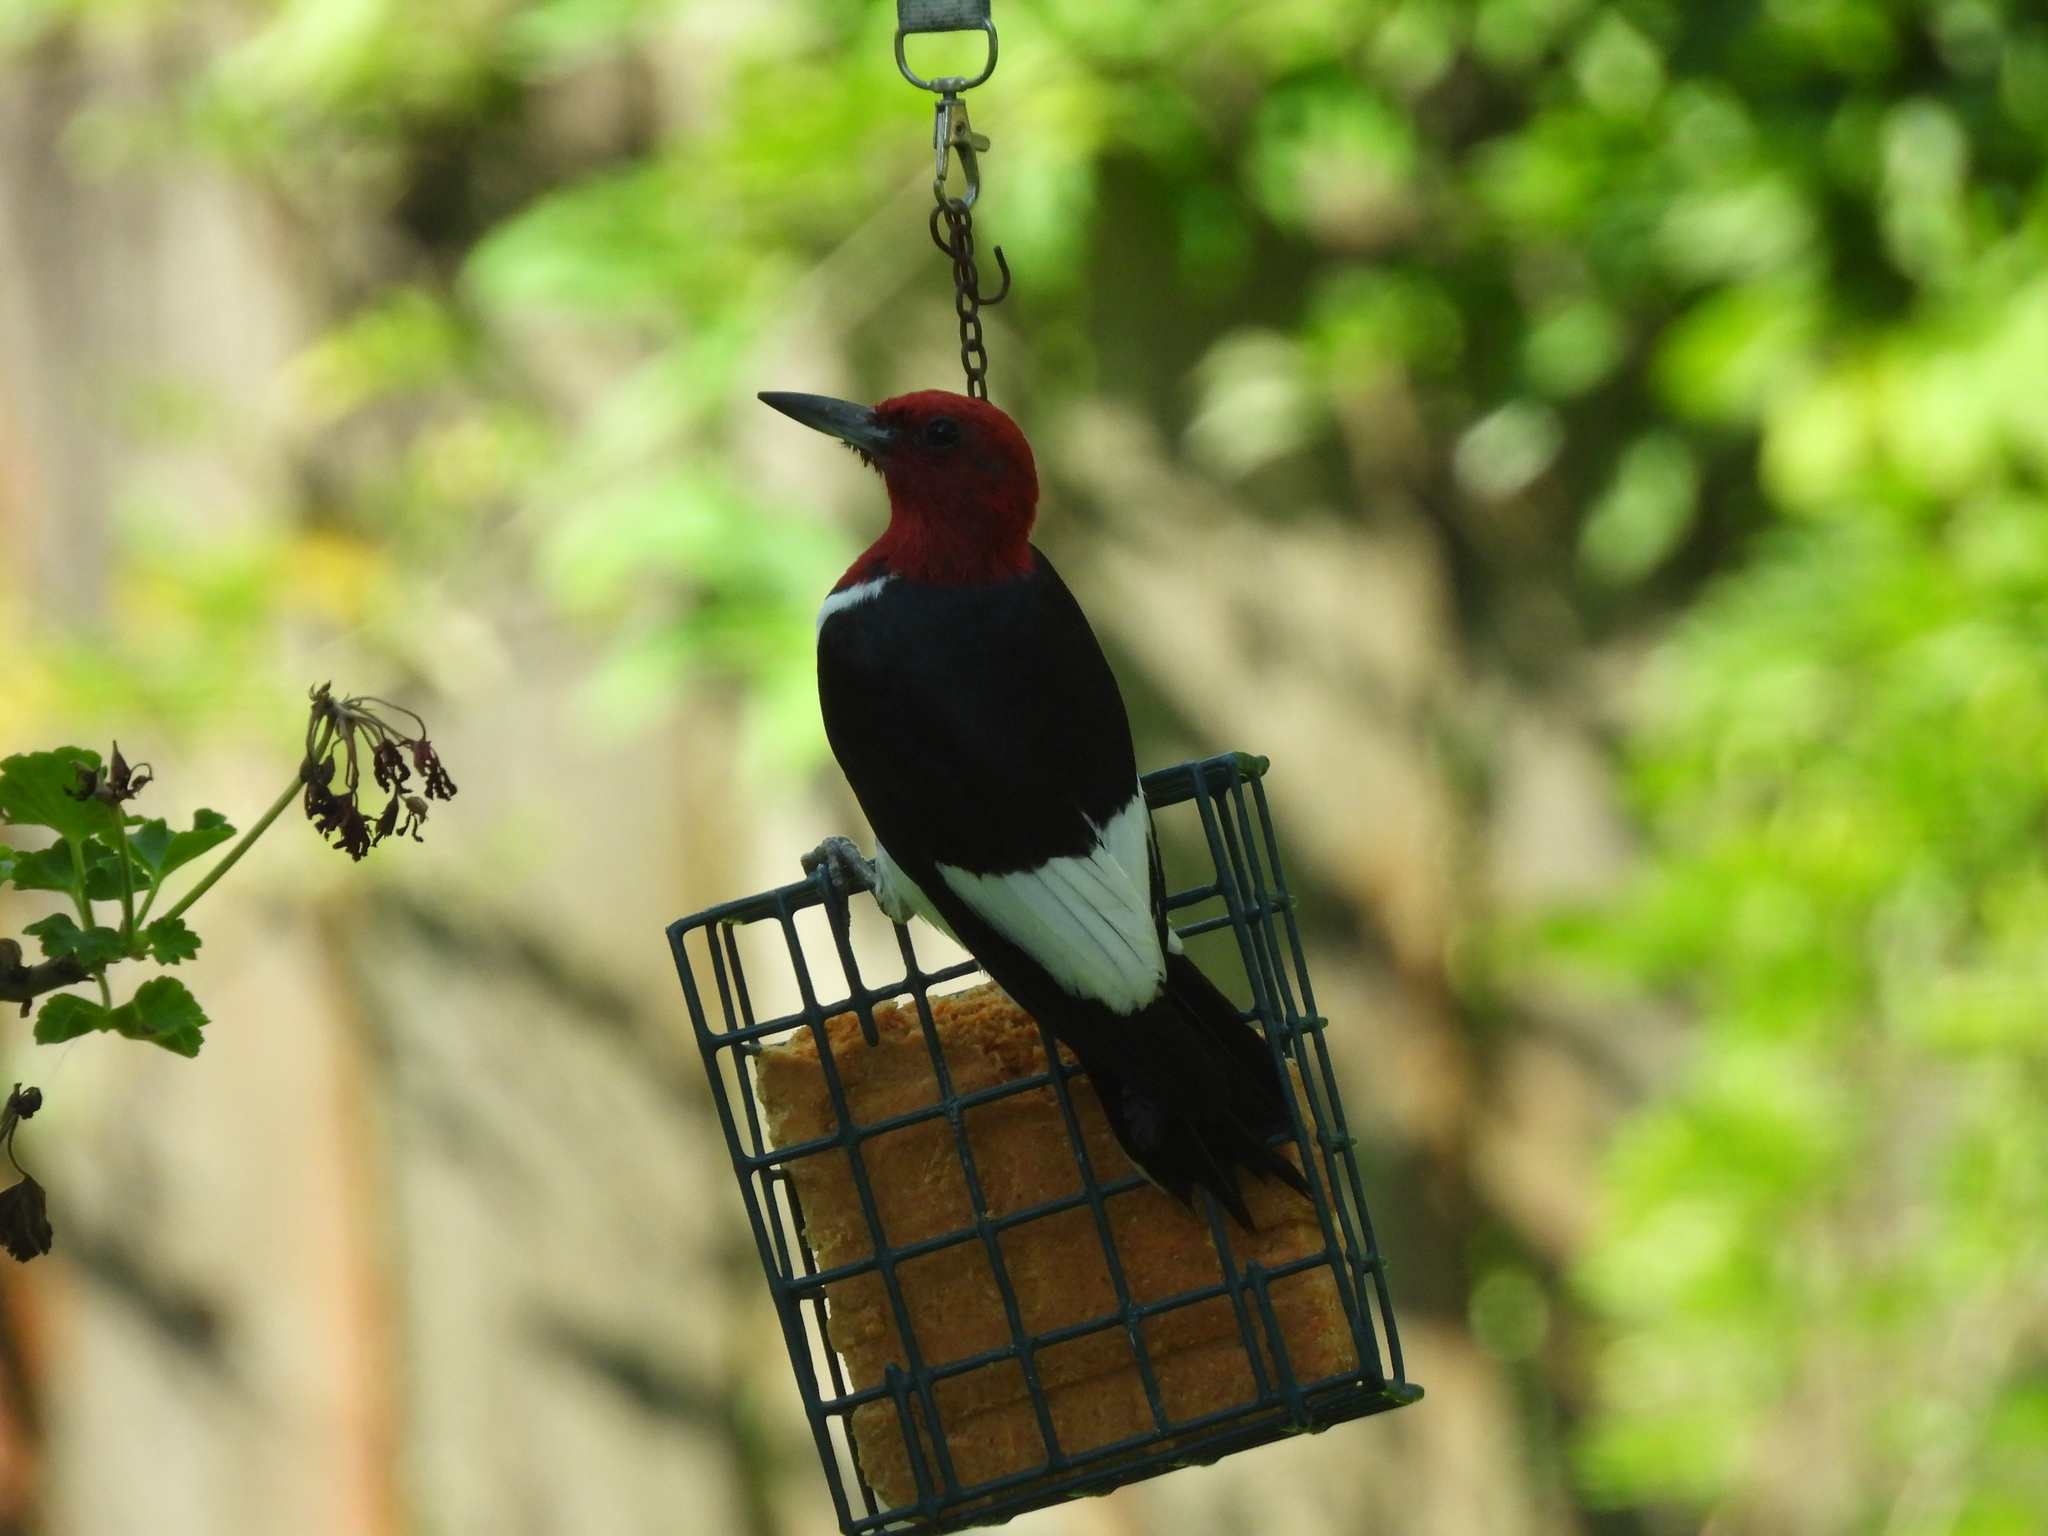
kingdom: Animalia
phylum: Chordata
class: Aves
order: Piciformes
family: Picidae
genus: Melanerpes
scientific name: Melanerpes erythrocephalus
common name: Red-headed woodpecker
